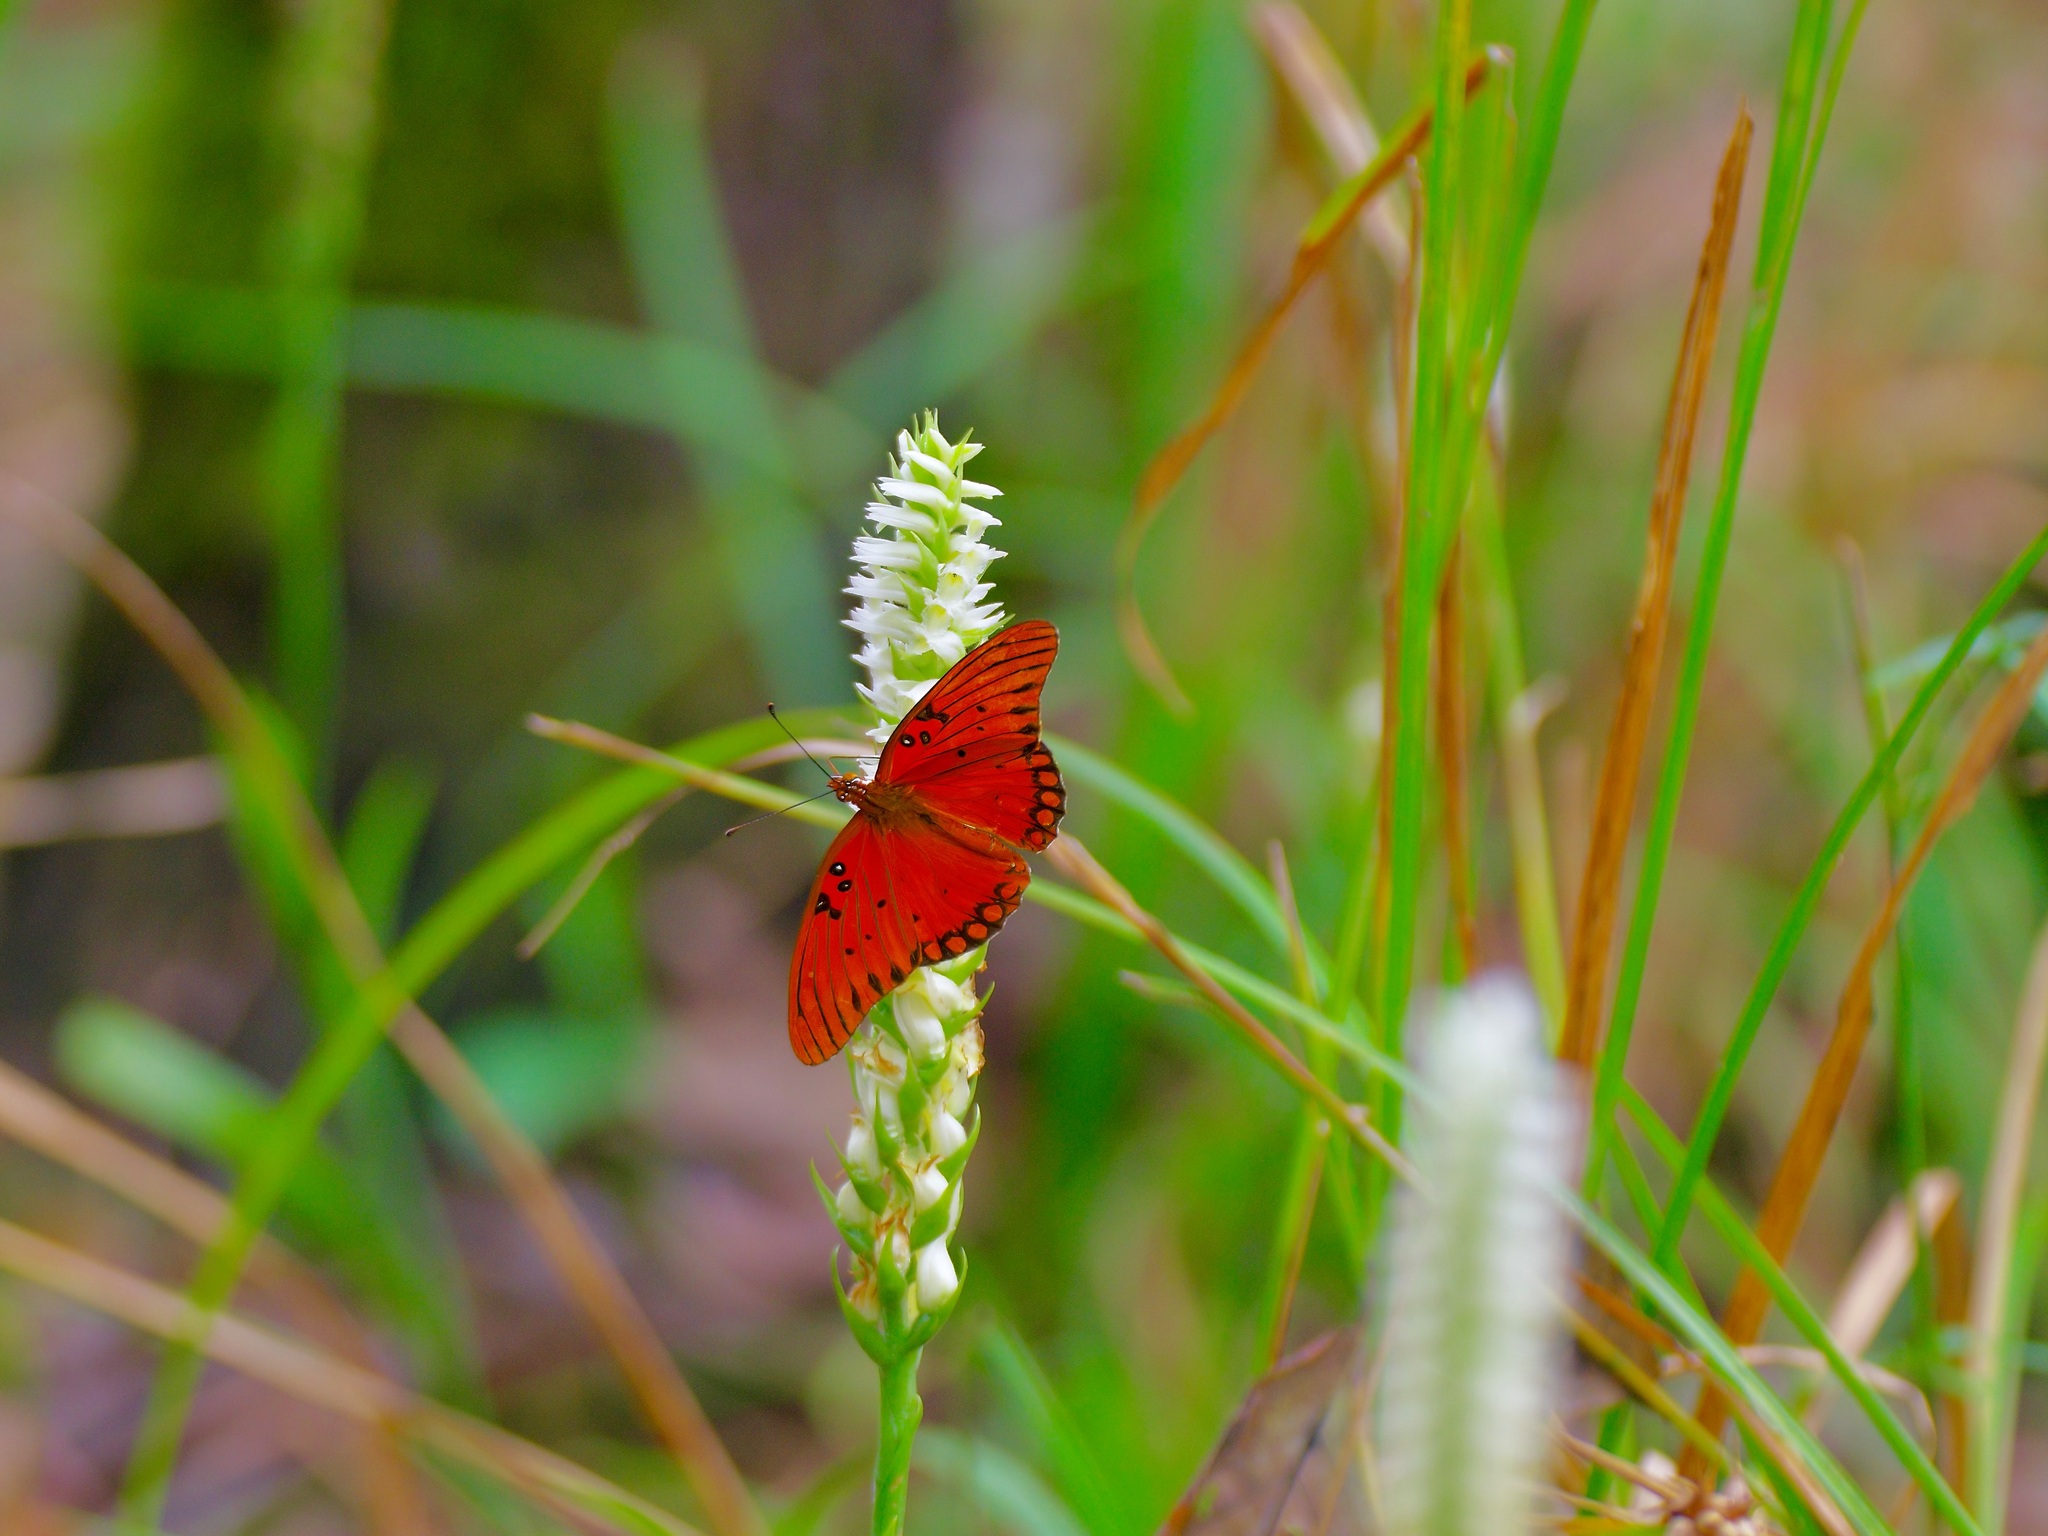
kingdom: Animalia
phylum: Arthropoda
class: Insecta
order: Lepidoptera
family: Nymphalidae
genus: Dione
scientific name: Dione vanillae
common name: Gulf fritillary
